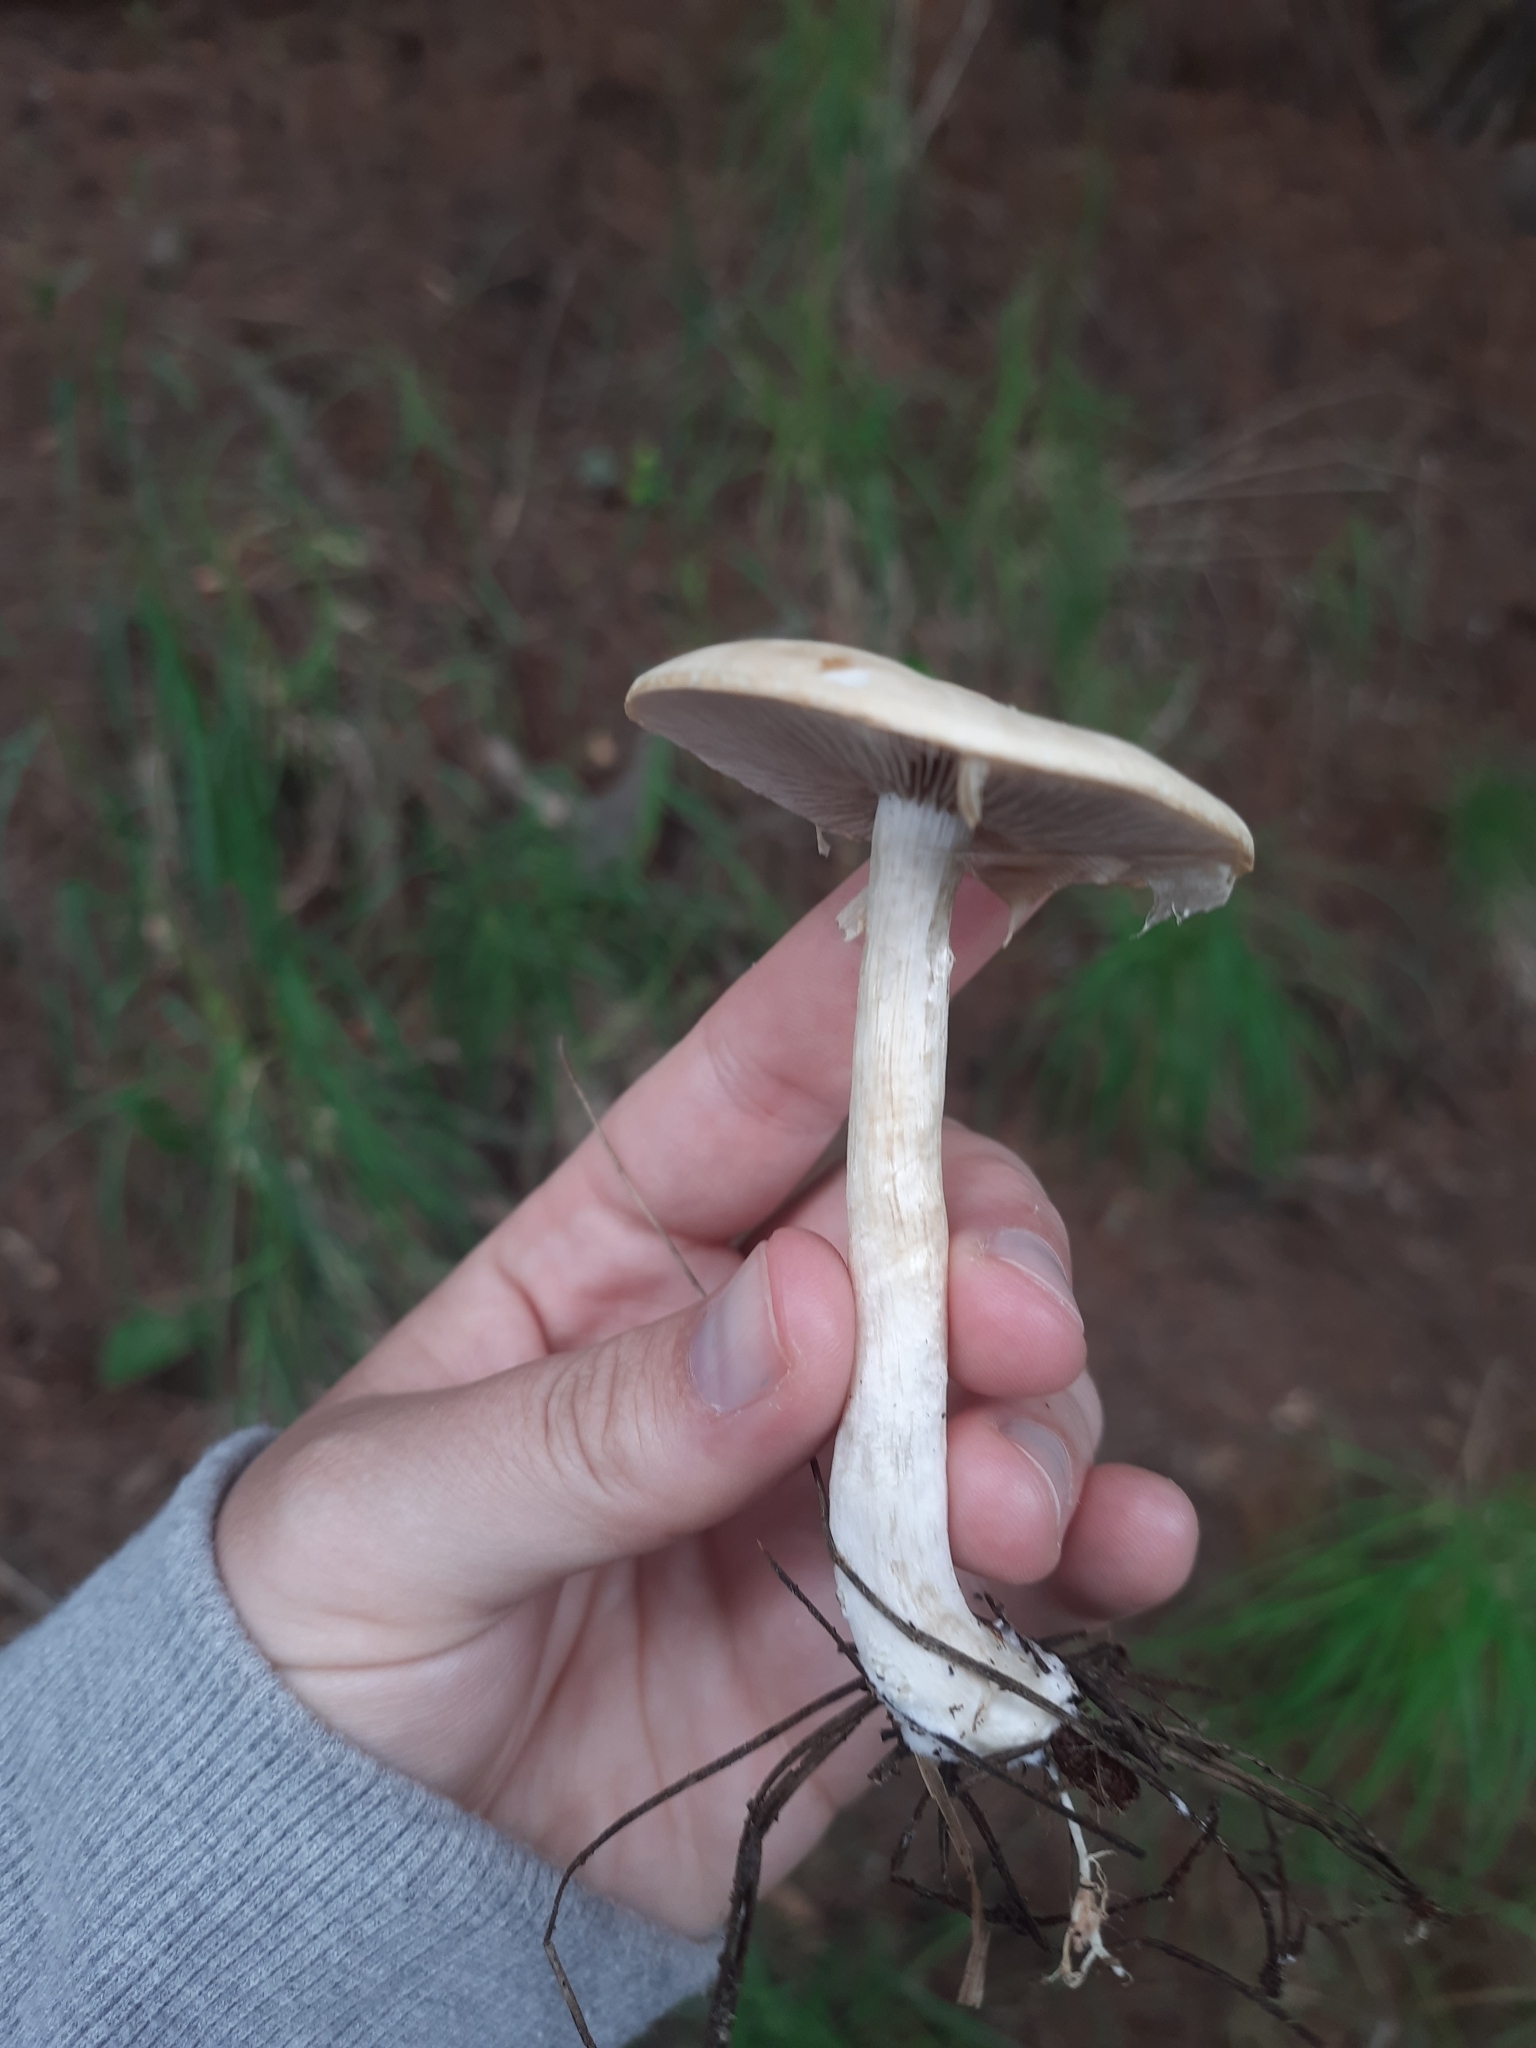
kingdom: Fungi
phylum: Basidiomycota
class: Agaricomycetes
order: Agaricales
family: Strophariaceae
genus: Agrocybe
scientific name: Agrocybe praecox
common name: Spring fieldcap
